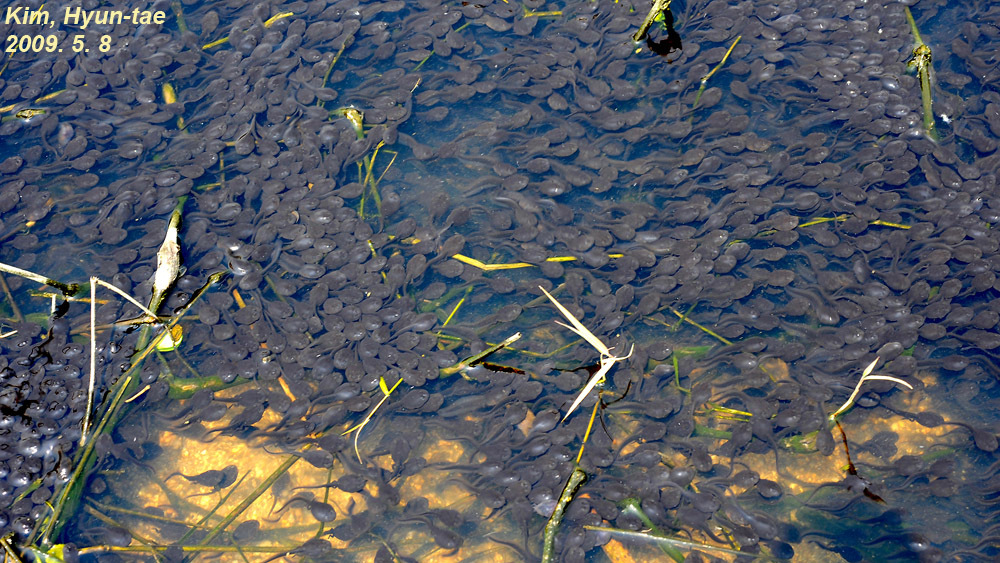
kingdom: Animalia
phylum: Chordata
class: Amphibia
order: Anura
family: Bufonidae
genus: Bufo
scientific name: Bufo gargarizans
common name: Asiatic toad
